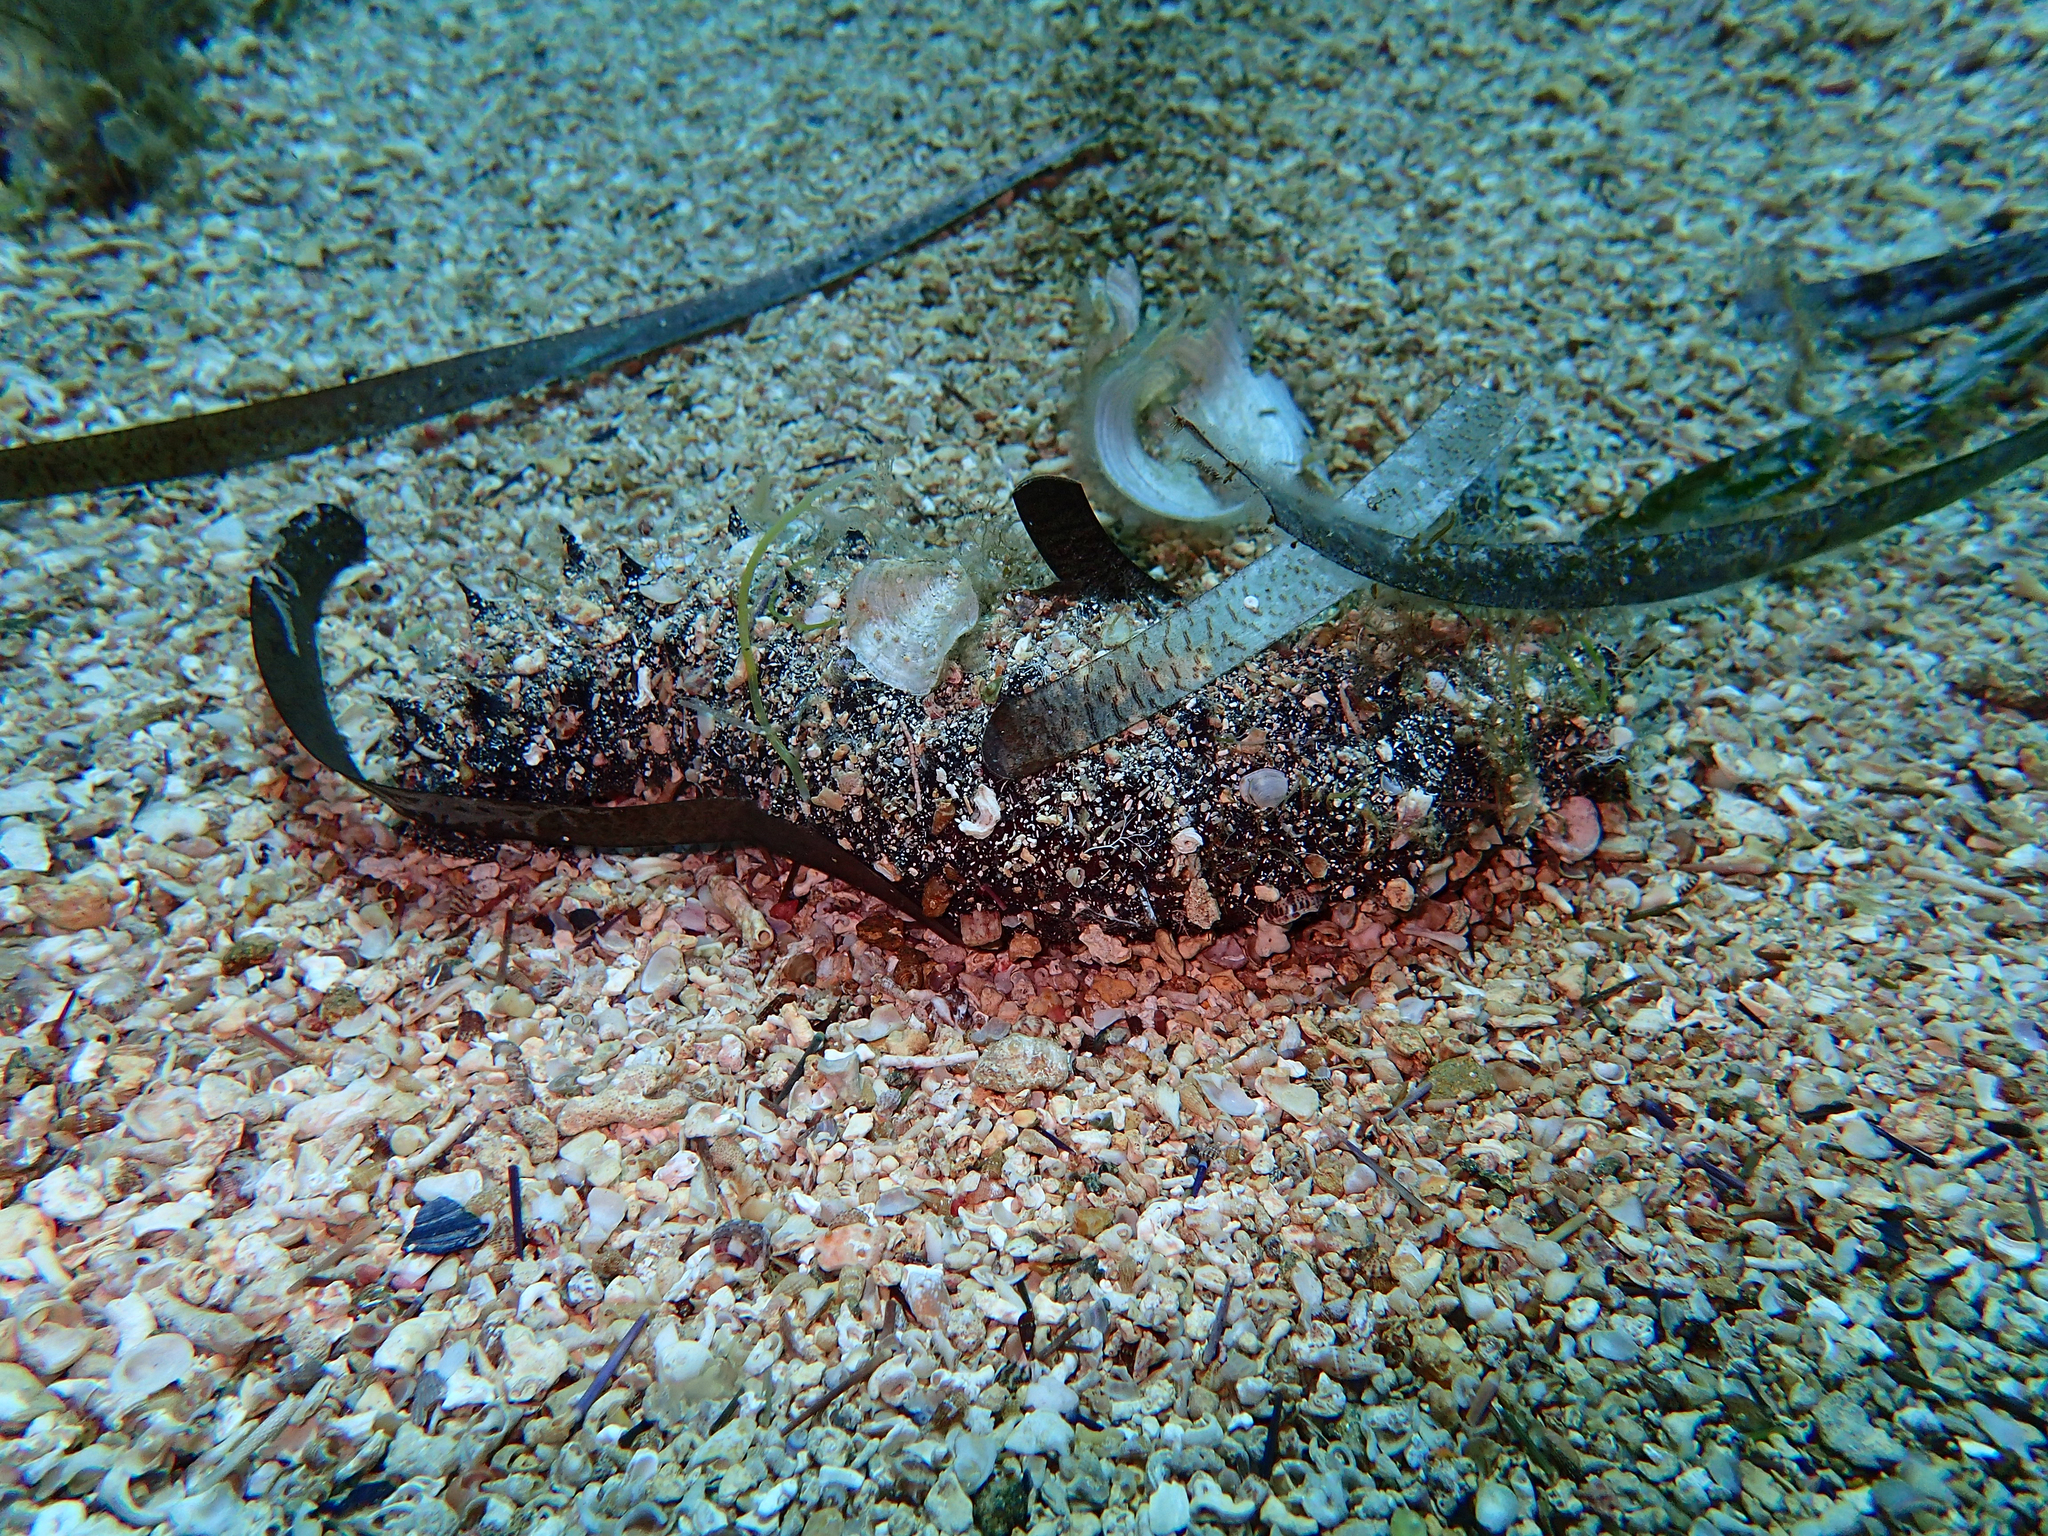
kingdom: Animalia
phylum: Echinodermata
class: Holothuroidea
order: Holothuriida
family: Holothuriidae
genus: Holothuria
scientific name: Holothuria
